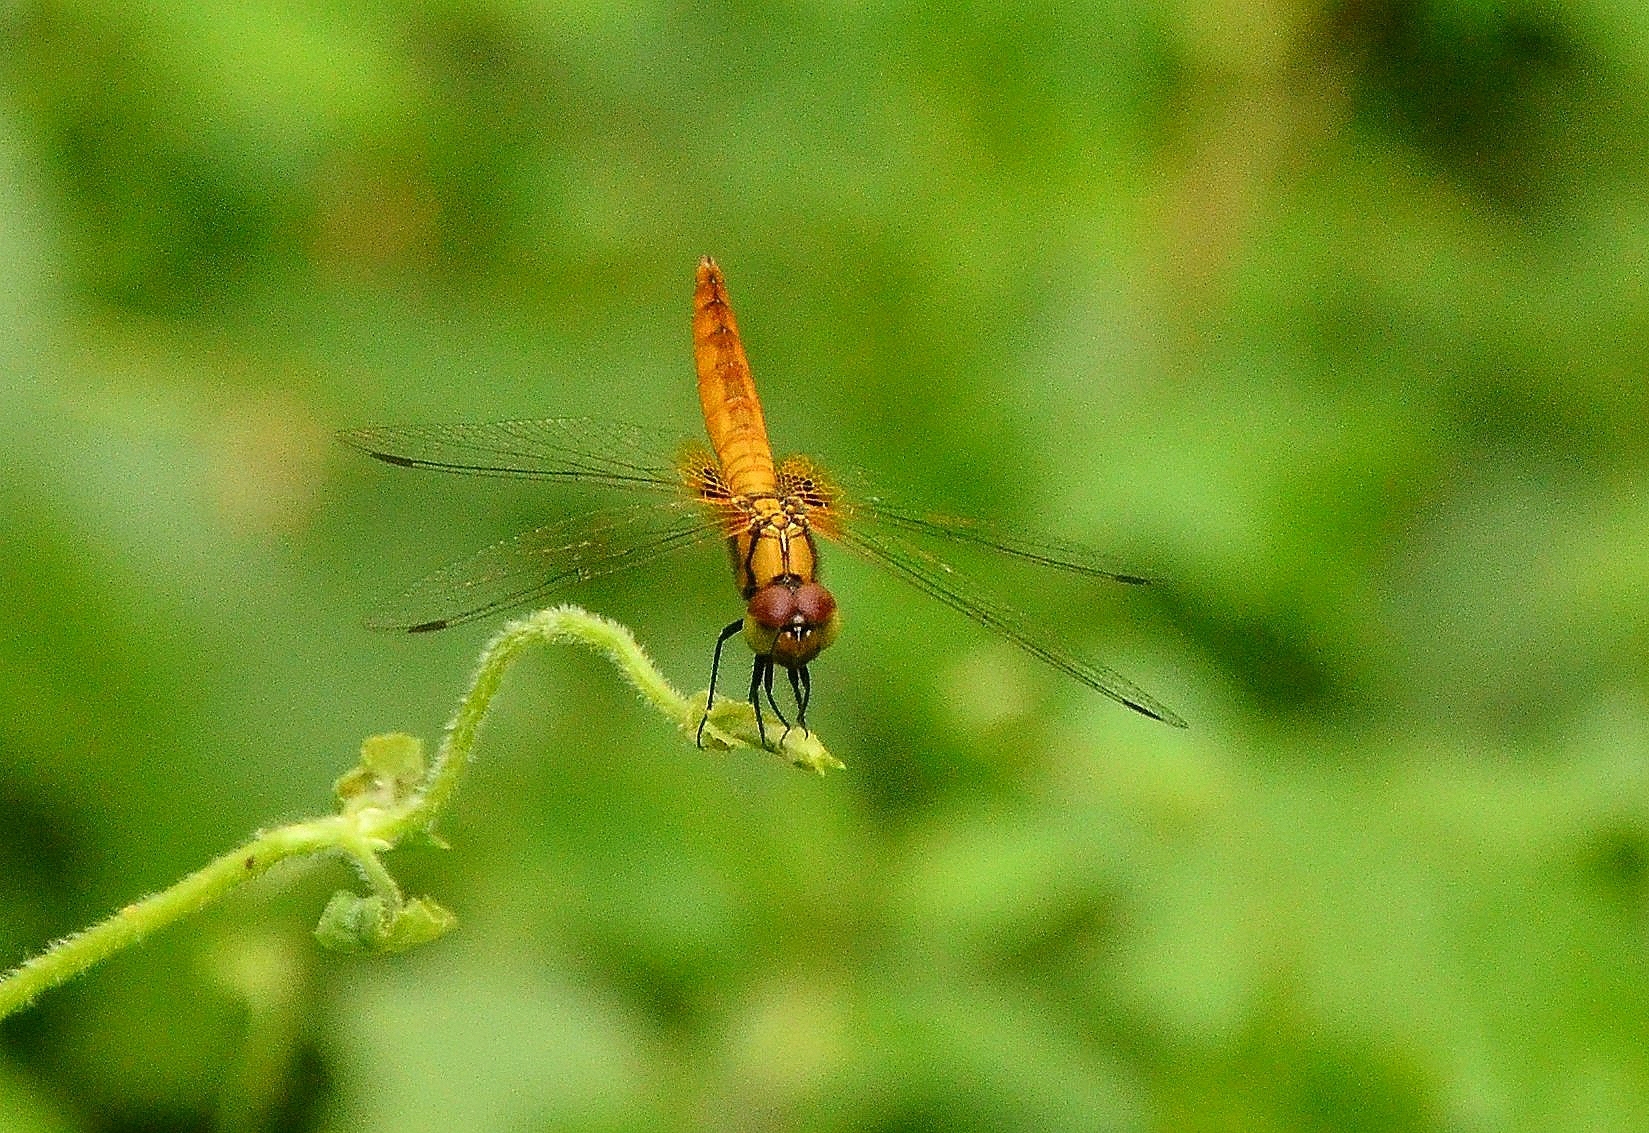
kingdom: Animalia
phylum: Arthropoda
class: Insecta
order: Odonata
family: Libellulidae
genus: Aethriamanta
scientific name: Aethriamanta brevipennis
